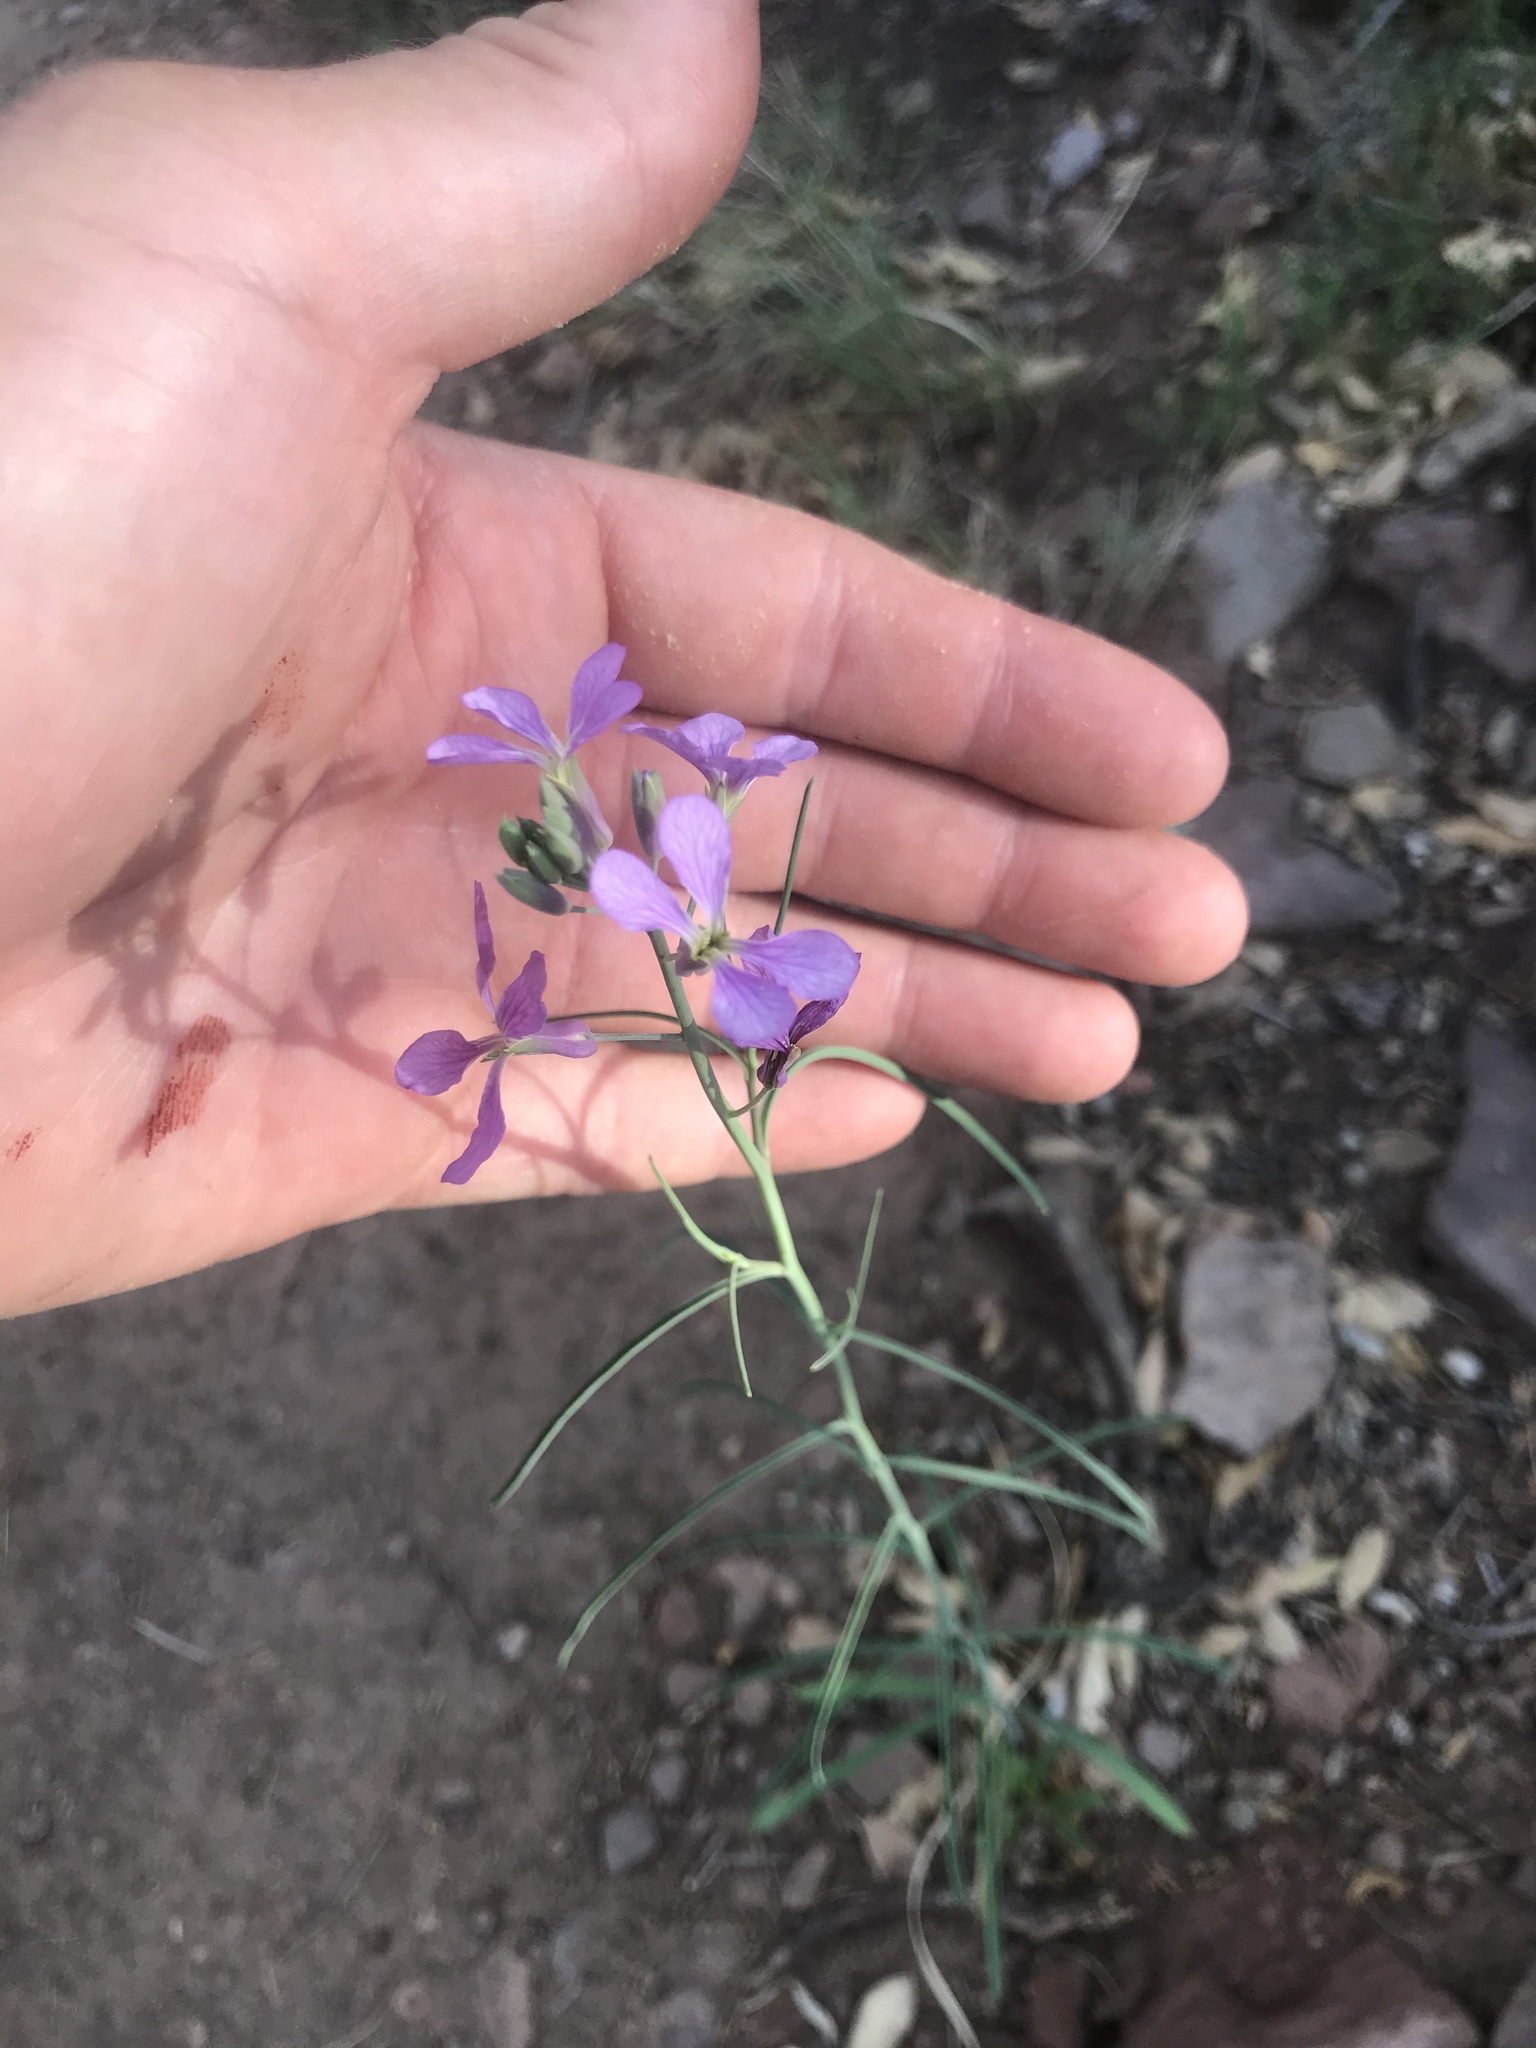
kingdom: Plantae
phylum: Tracheophyta
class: Magnoliopsida
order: Brassicales
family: Brassicaceae
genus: Hesperidanthus
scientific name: Hesperidanthus linearifolius
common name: Slim-leaf plains mustard
